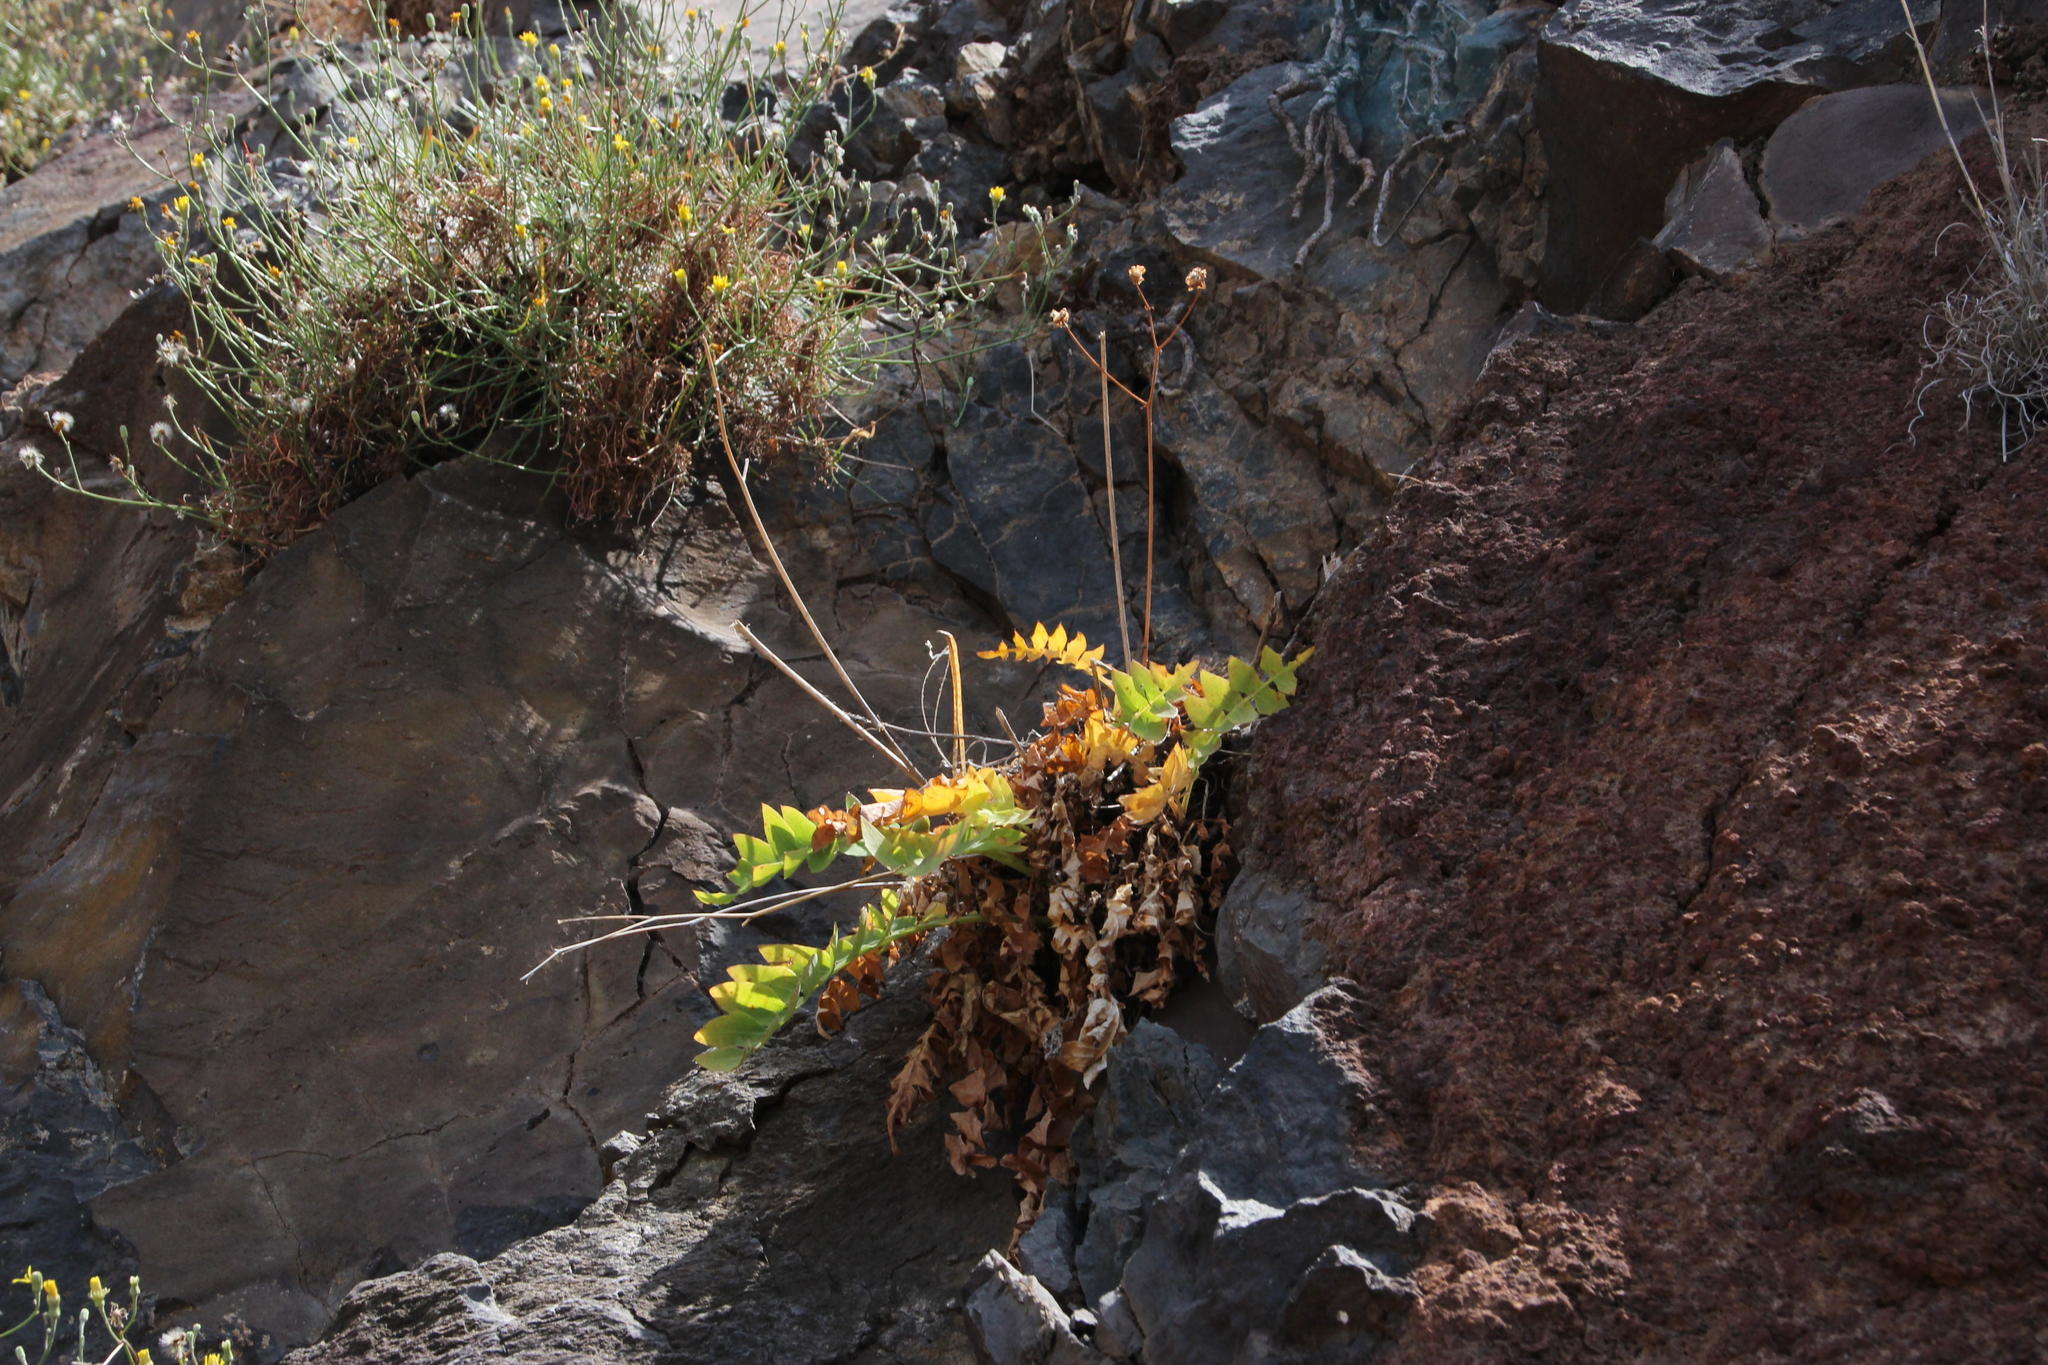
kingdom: Plantae
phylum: Tracheophyta
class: Magnoliopsida
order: Asterales
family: Asteraceae
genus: Sonchus
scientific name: Sonchus latifolius
